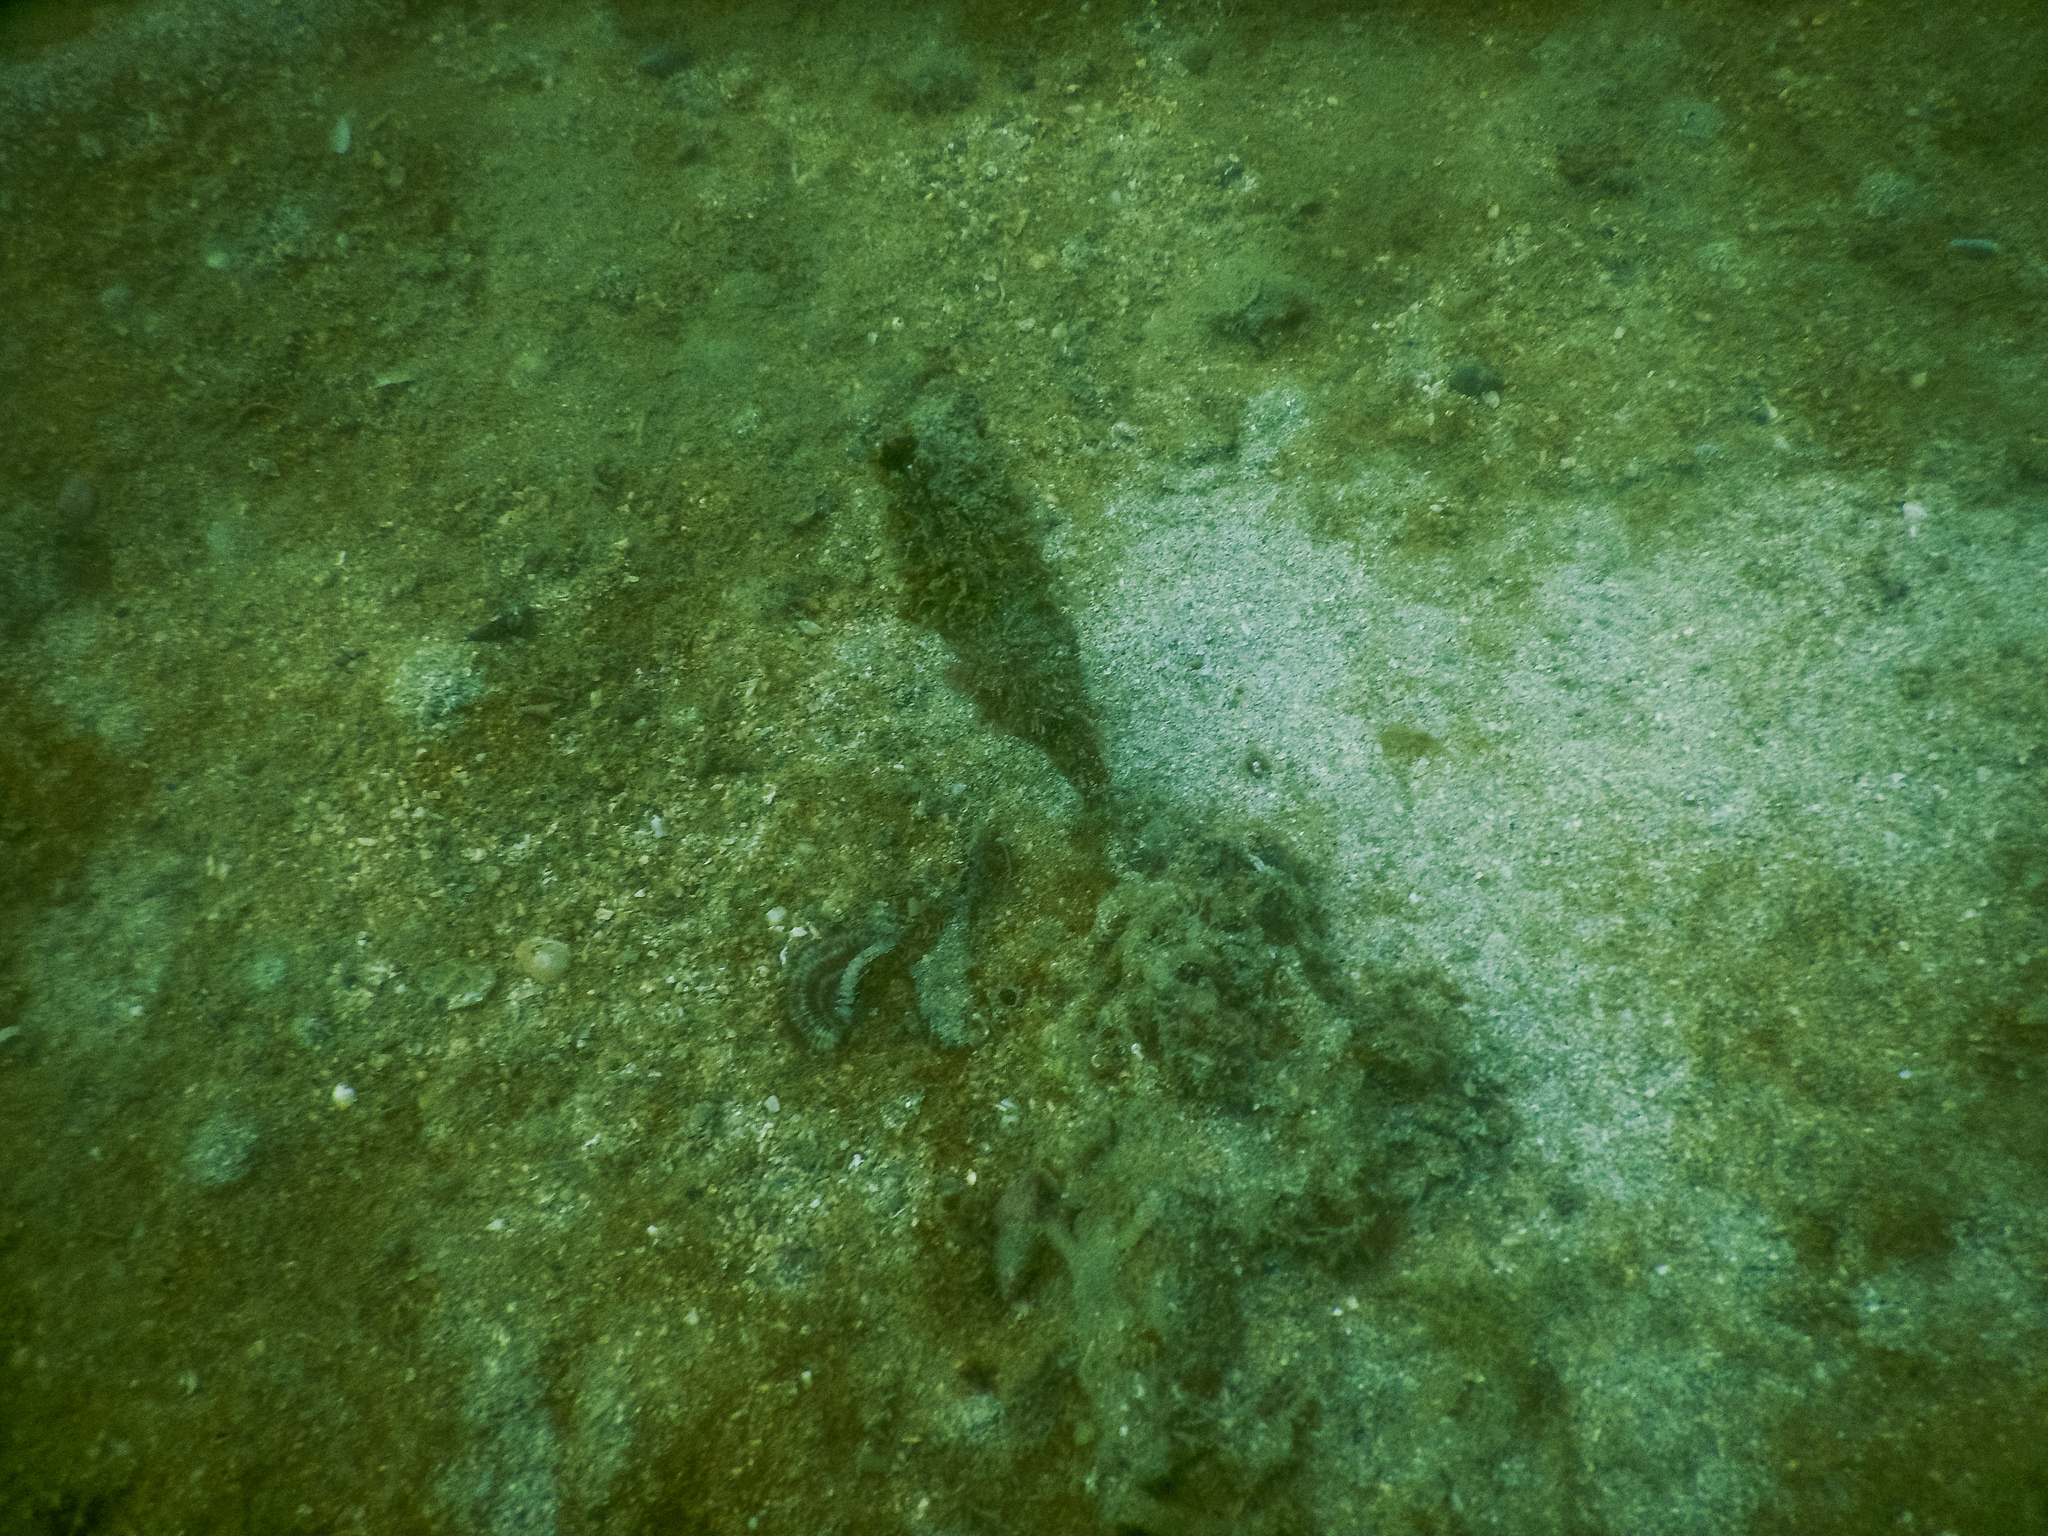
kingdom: Animalia
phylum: Chordata
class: Ascidiacea
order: Stolidobranchia
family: Styelidae
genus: Styela
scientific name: Styela clava
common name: Leathery sea squirt
